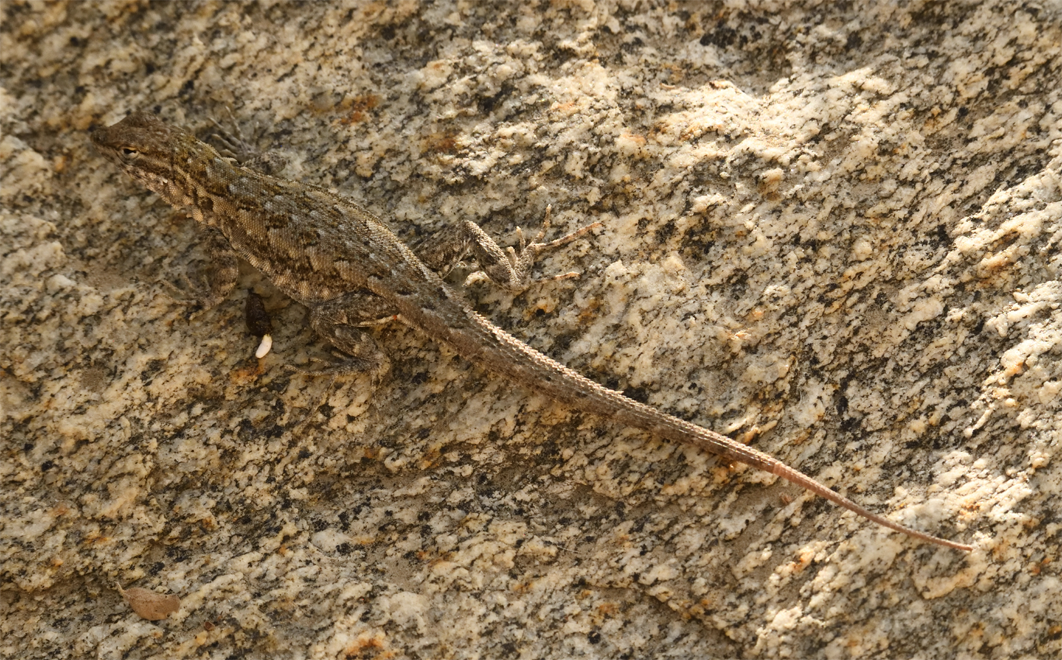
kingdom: Animalia
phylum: Chordata
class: Squamata
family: Phrynosomatidae
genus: Uta
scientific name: Uta stansburiana
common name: Side-blotched lizard
